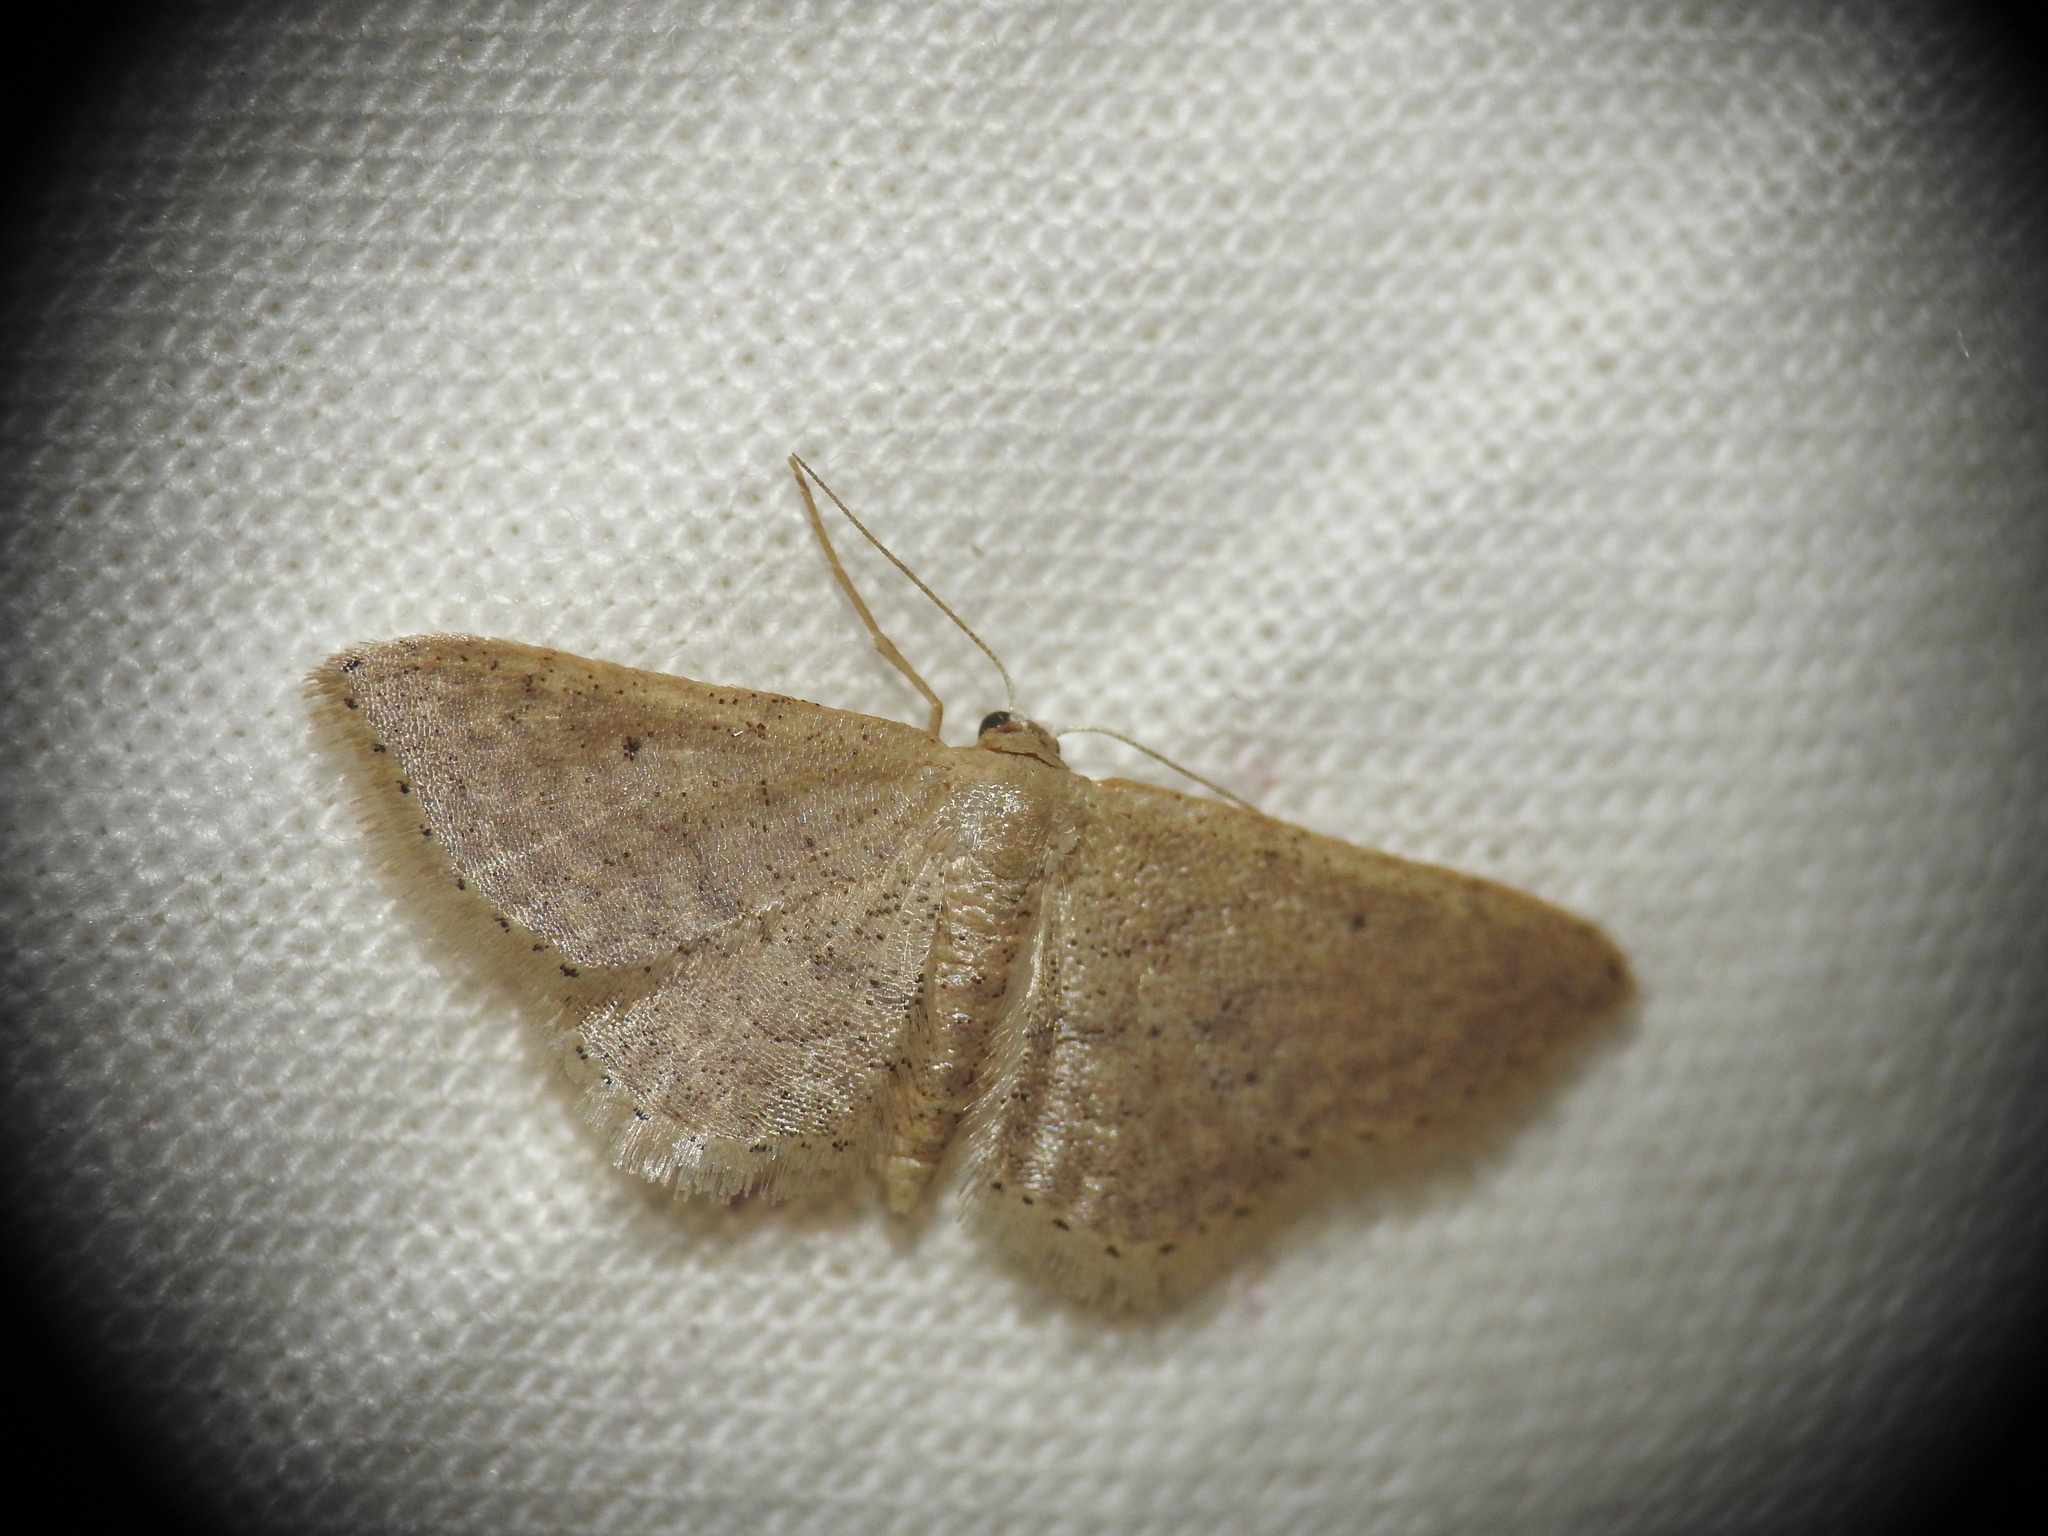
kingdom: Animalia
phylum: Arthropoda
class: Insecta
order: Lepidoptera
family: Geometridae
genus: Idaea
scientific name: Idaea obsoletaria
